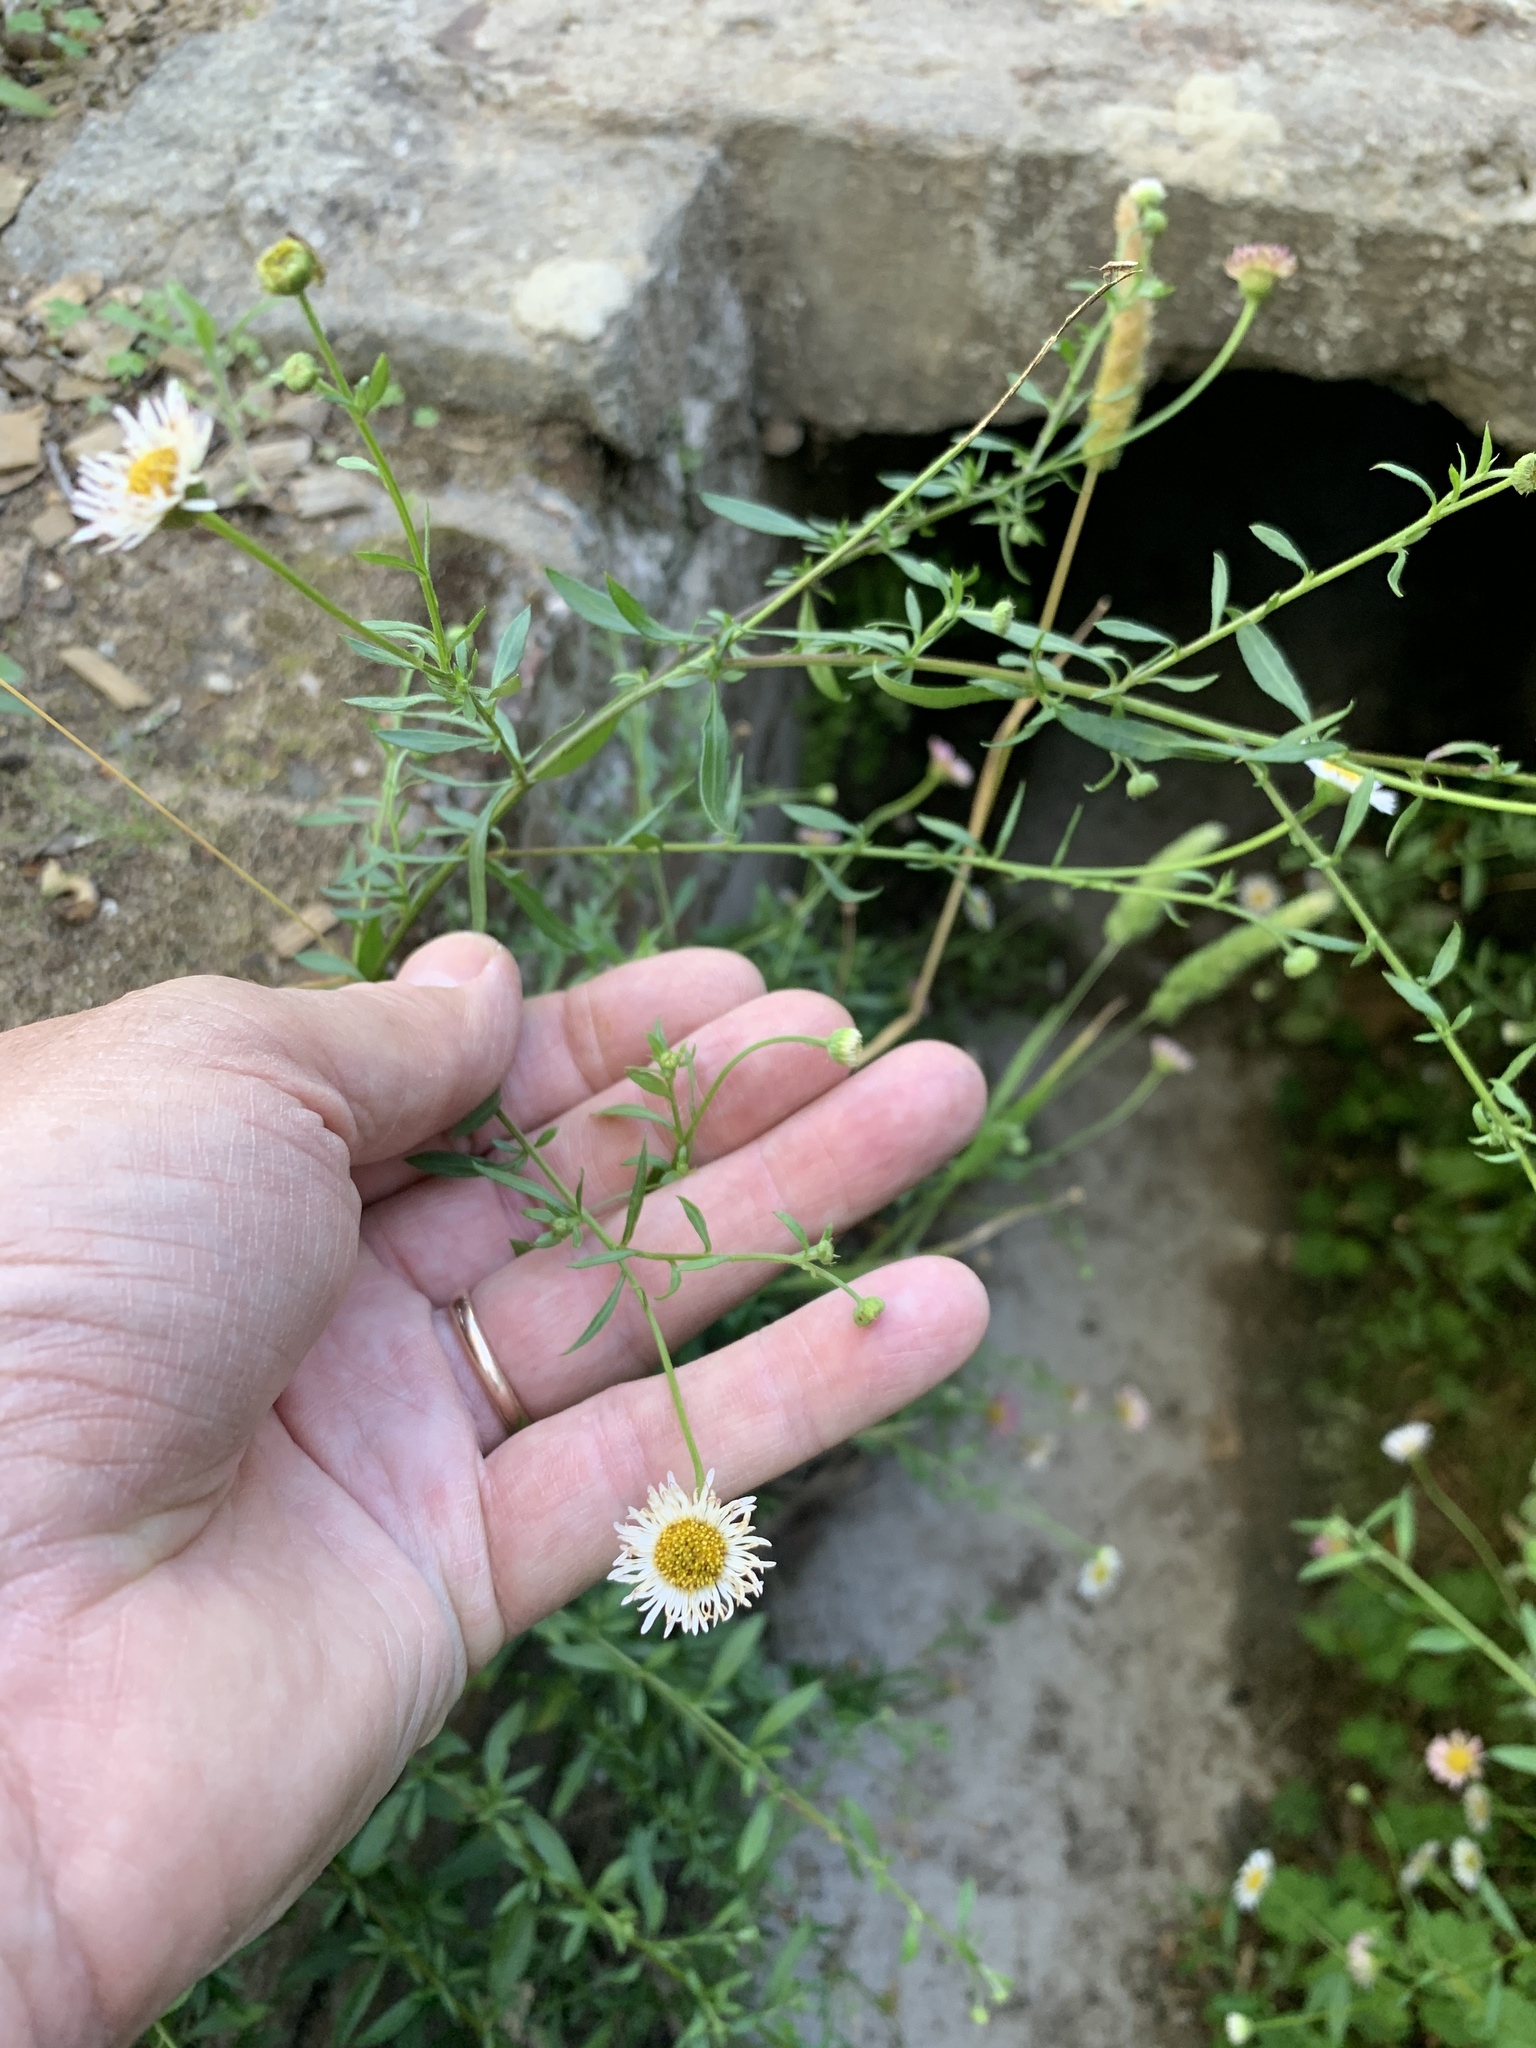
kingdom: Plantae
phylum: Tracheophyta
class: Magnoliopsida
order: Asterales
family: Asteraceae
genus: Erigeron
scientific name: Erigeron karvinskianus
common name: Mexican fleabane
